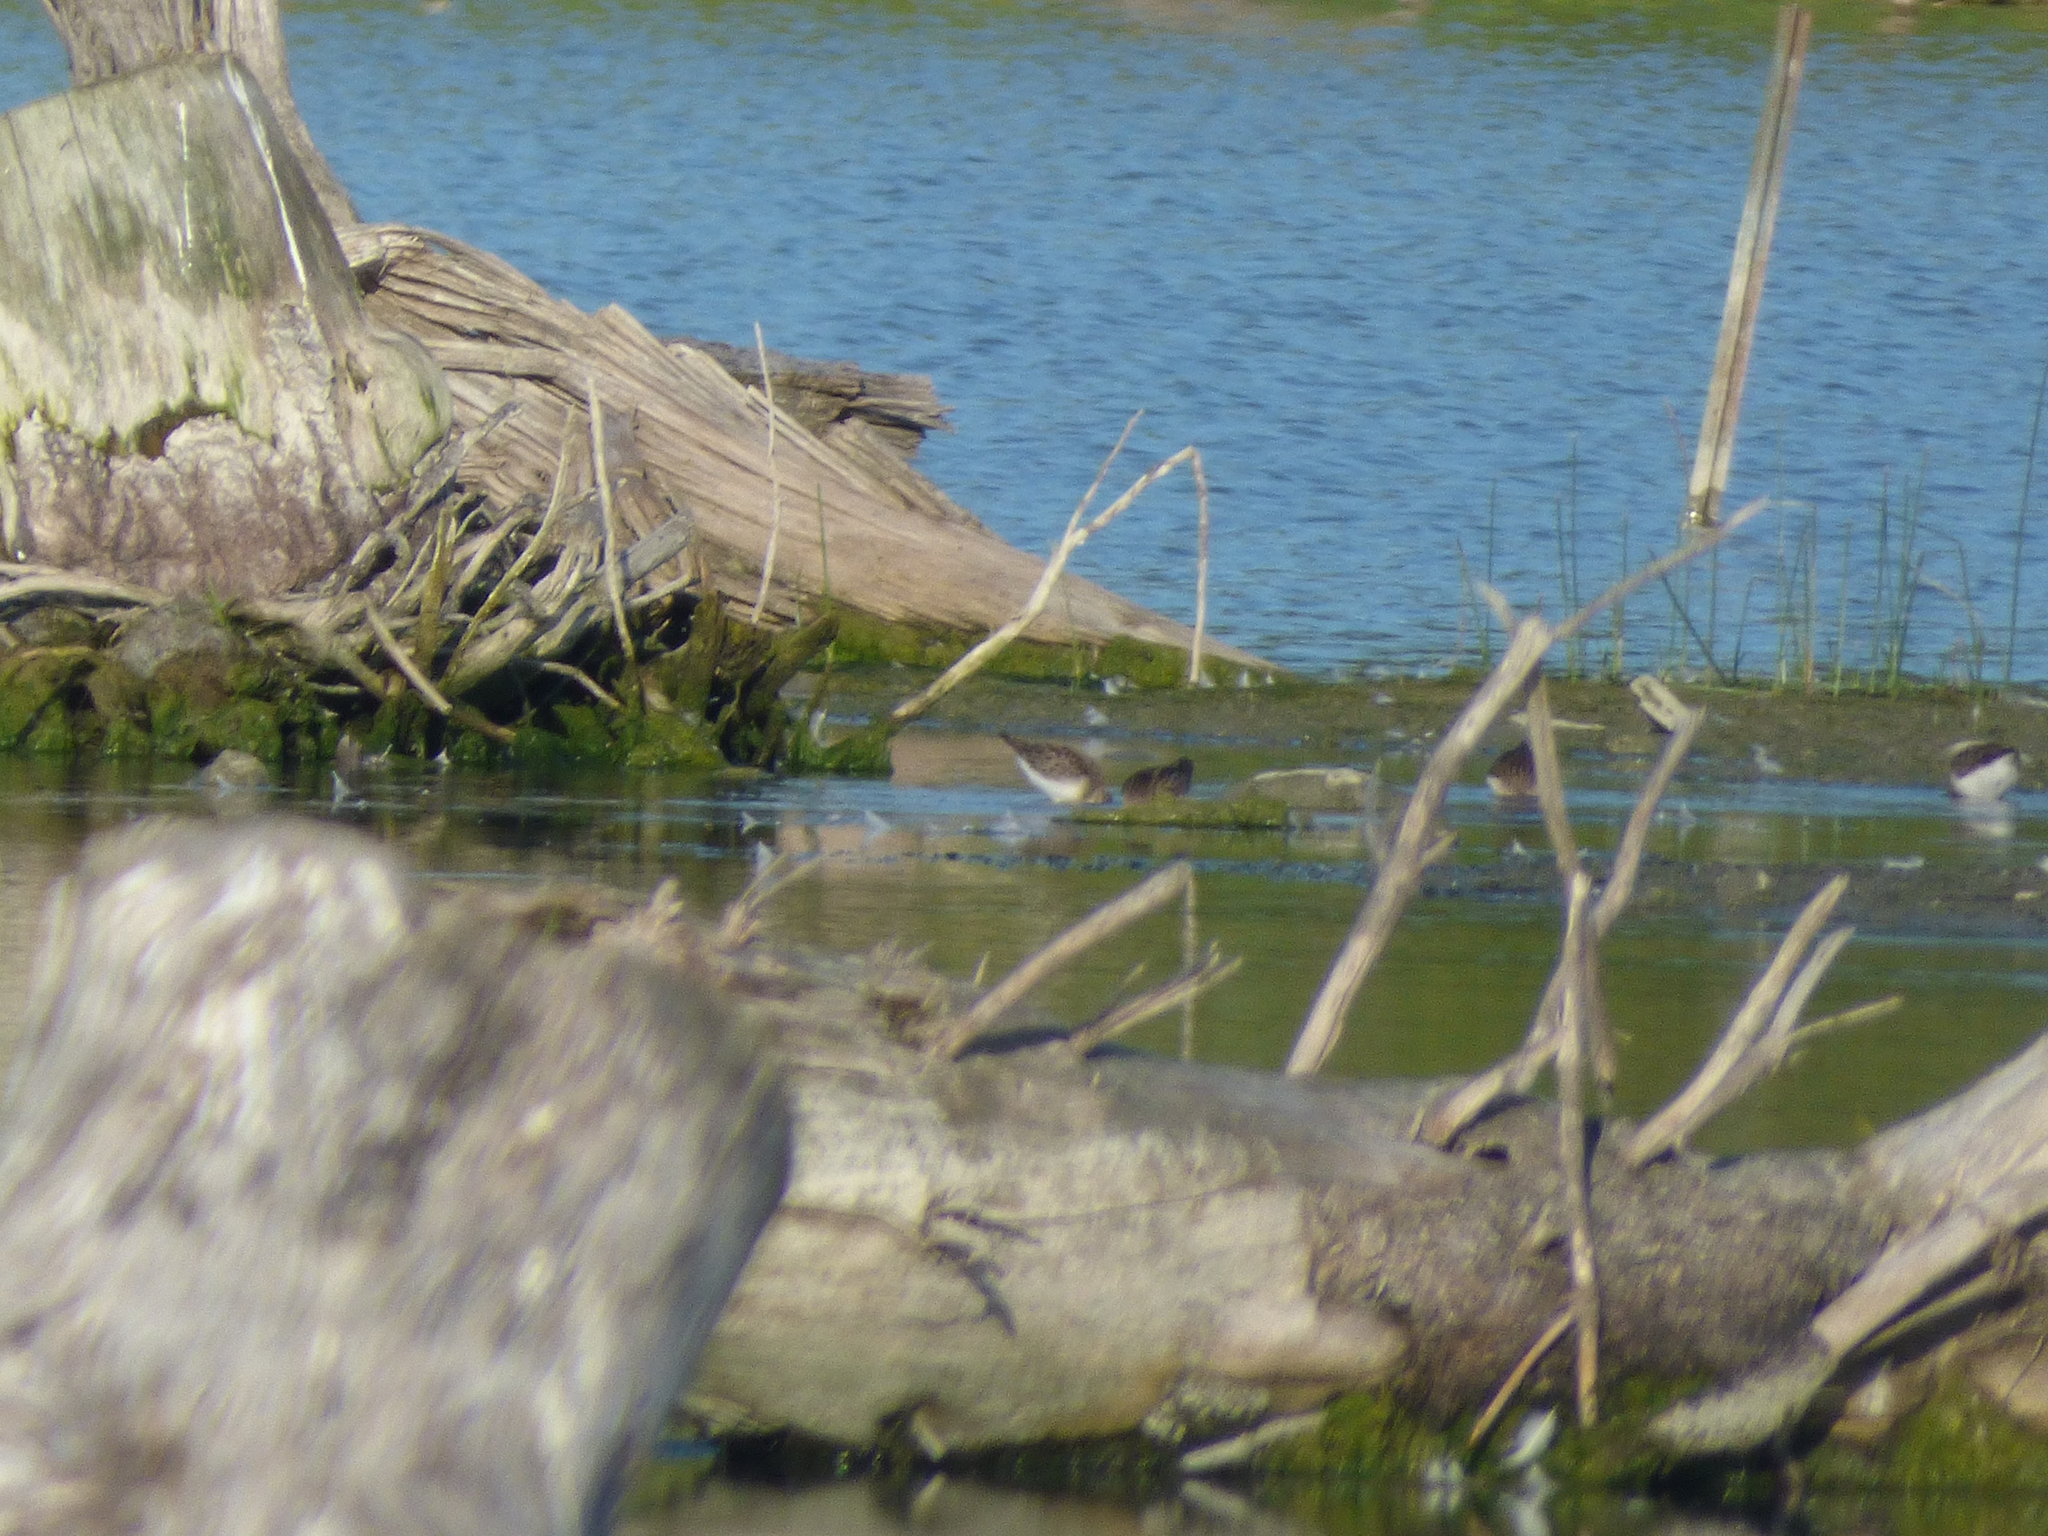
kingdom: Animalia
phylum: Chordata
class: Aves
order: Charadriiformes
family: Scolopacidae
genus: Calidris
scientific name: Calidris pusilla
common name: Semipalmated sandpiper
